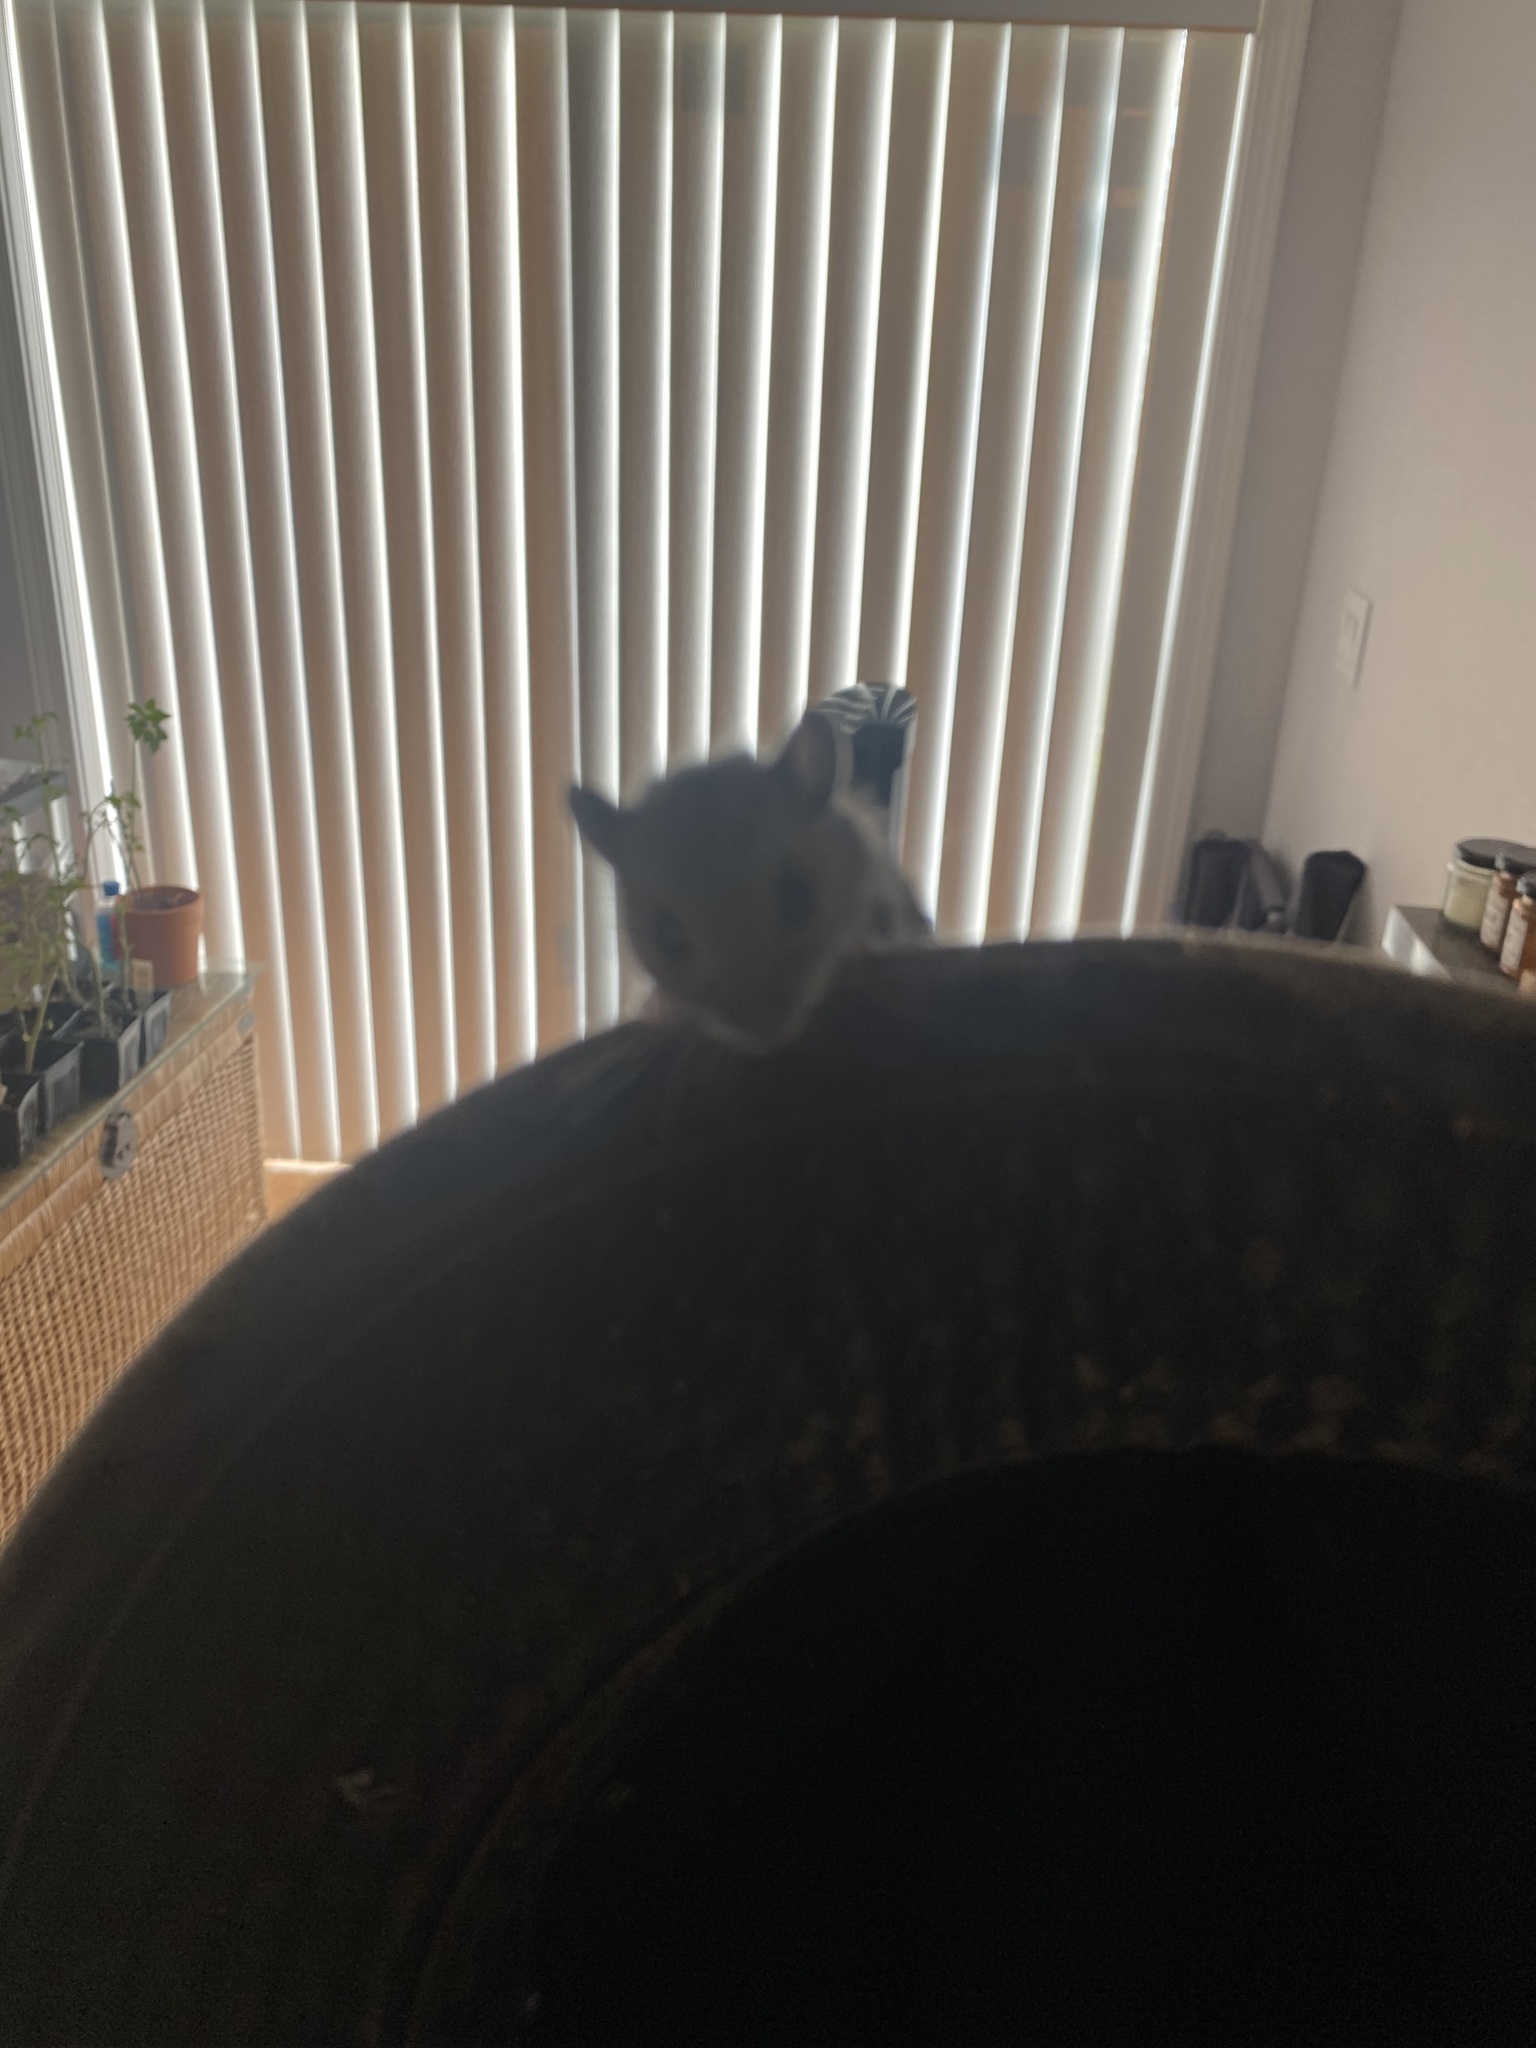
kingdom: Animalia
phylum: Chordata
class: Mammalia
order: Rodentia
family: Cricetidae
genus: Peromyscus
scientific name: Peromyscus maniculatus
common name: Deer mouse
